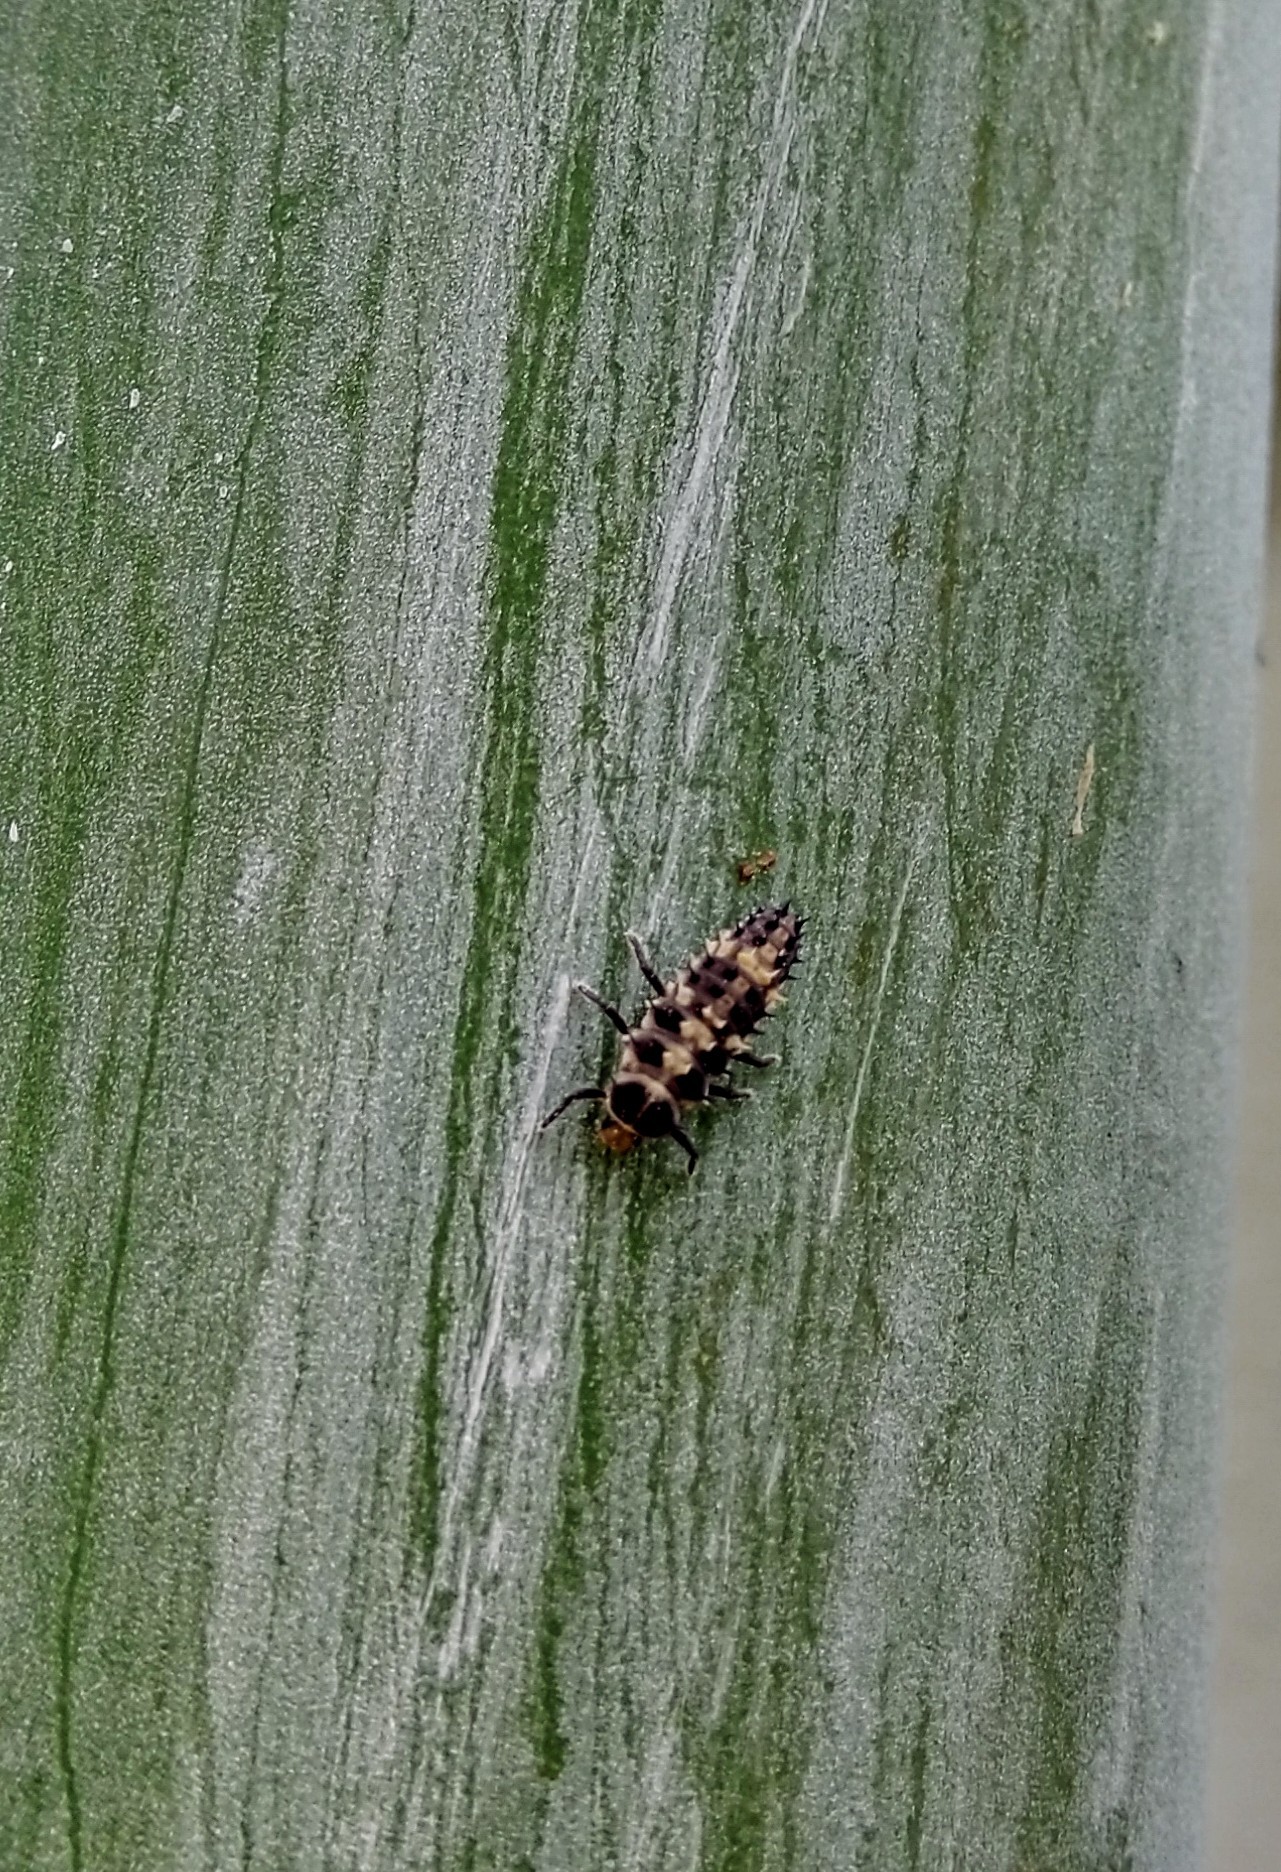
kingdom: Animalia
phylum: Arthropoda
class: Insecta
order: Coleoptera
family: Coccinellidae
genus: Cheilomenes
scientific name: Cheilomenes sexmaculata
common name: Ladybird beetle
